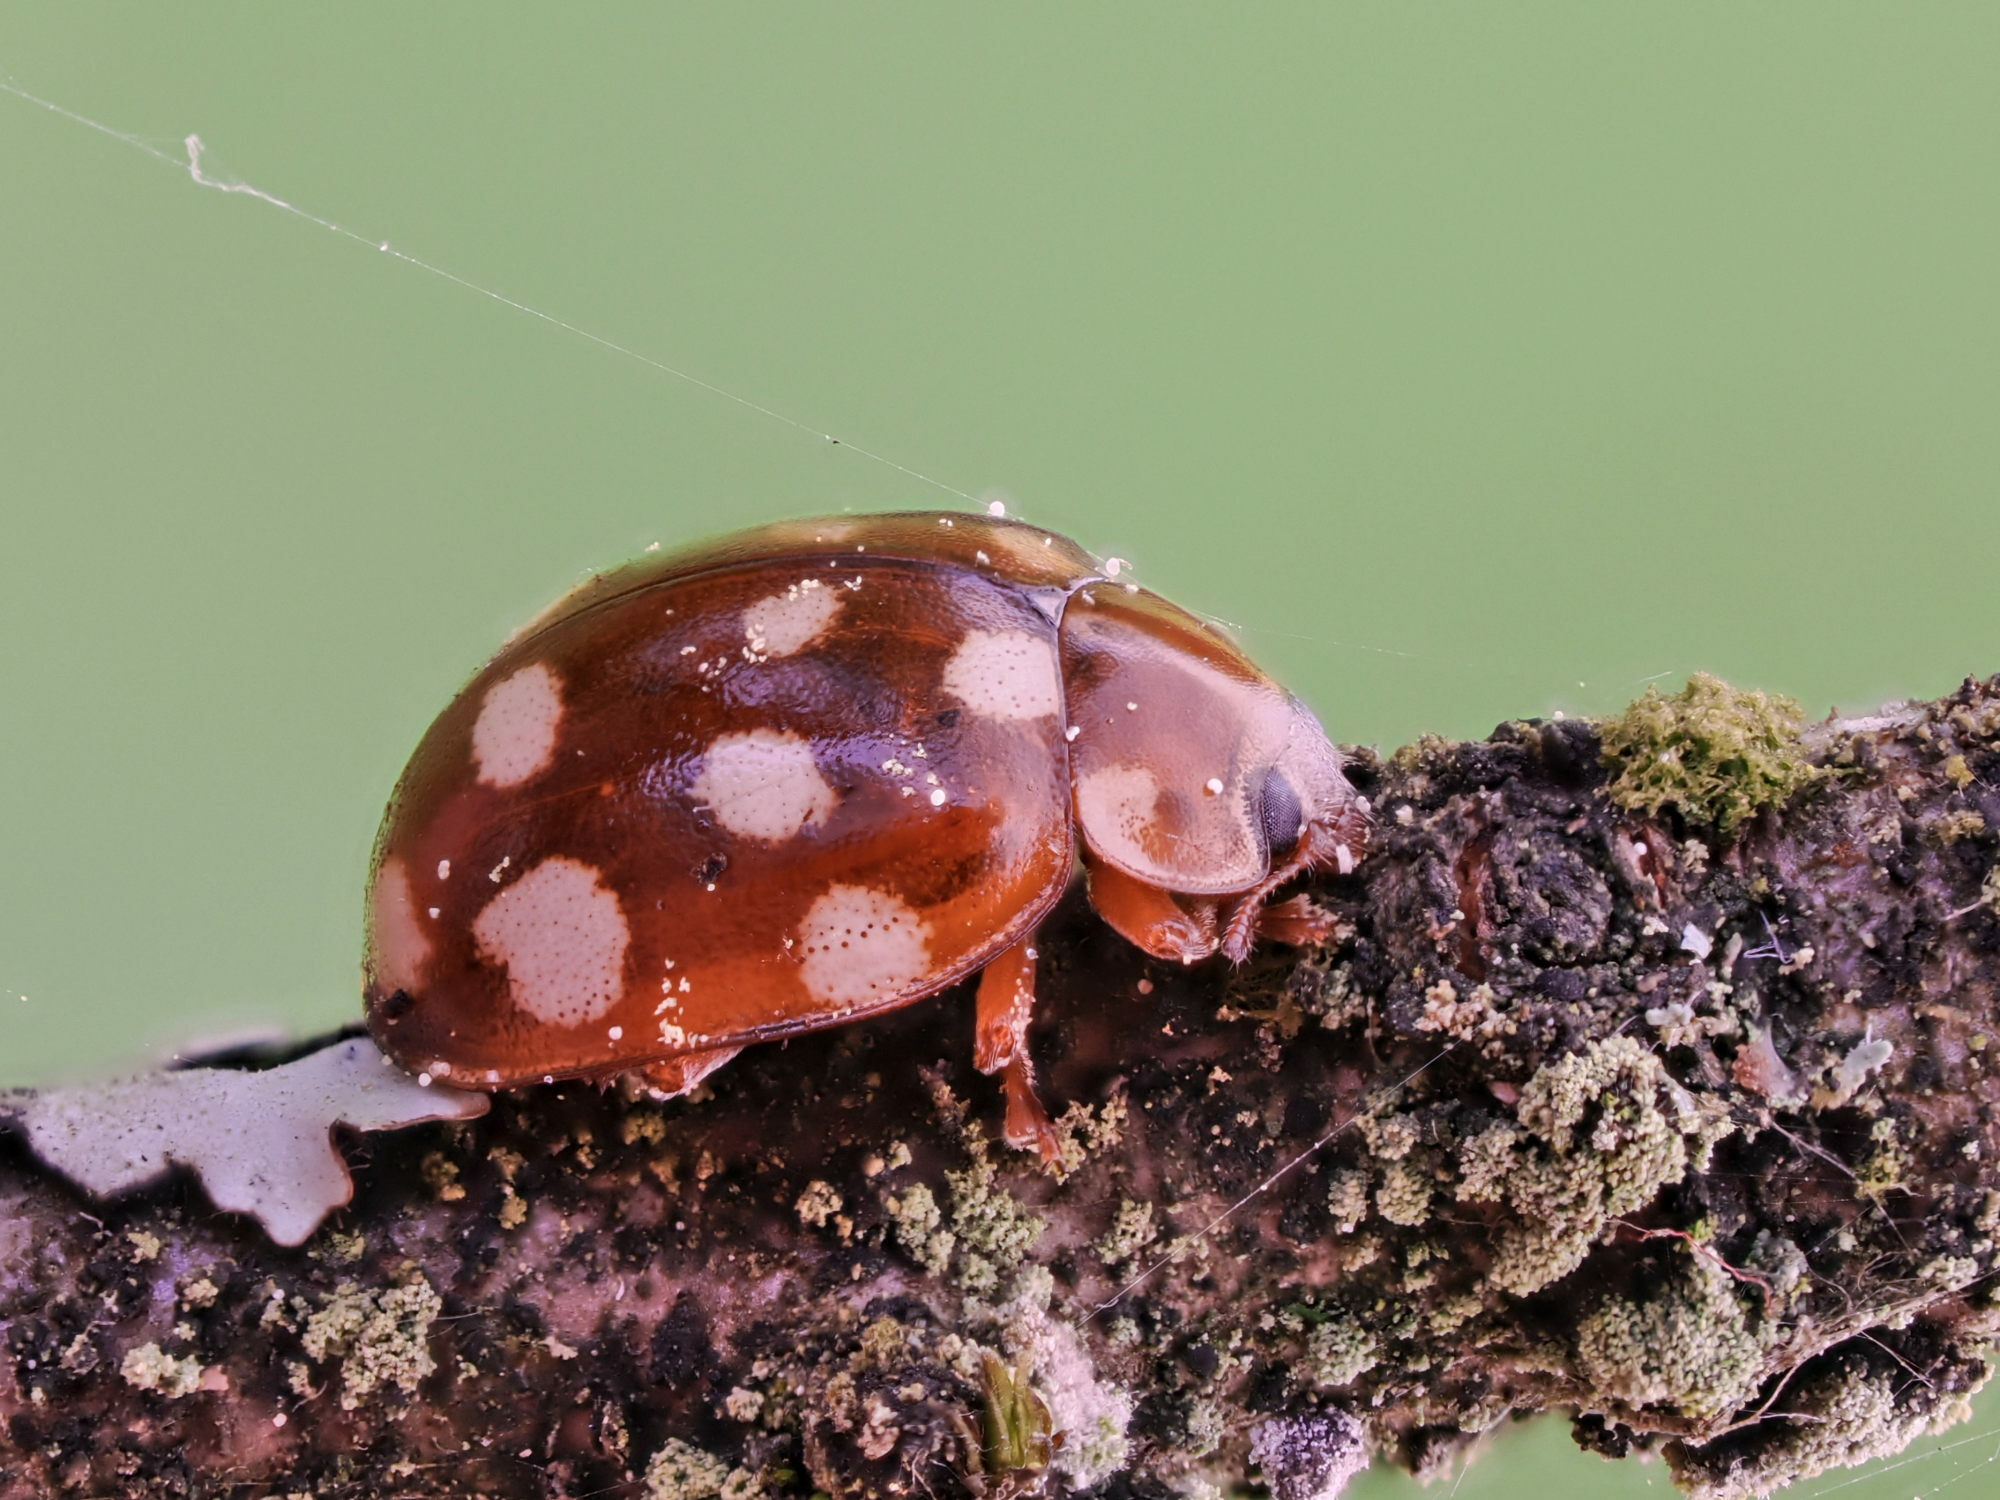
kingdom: Animalia
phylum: Arthropoda
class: Insecta
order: Coleoptera
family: Coccinellidae
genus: Calvia
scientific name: Calvia quatuordecimguttata
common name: Cream-spot ladybird
